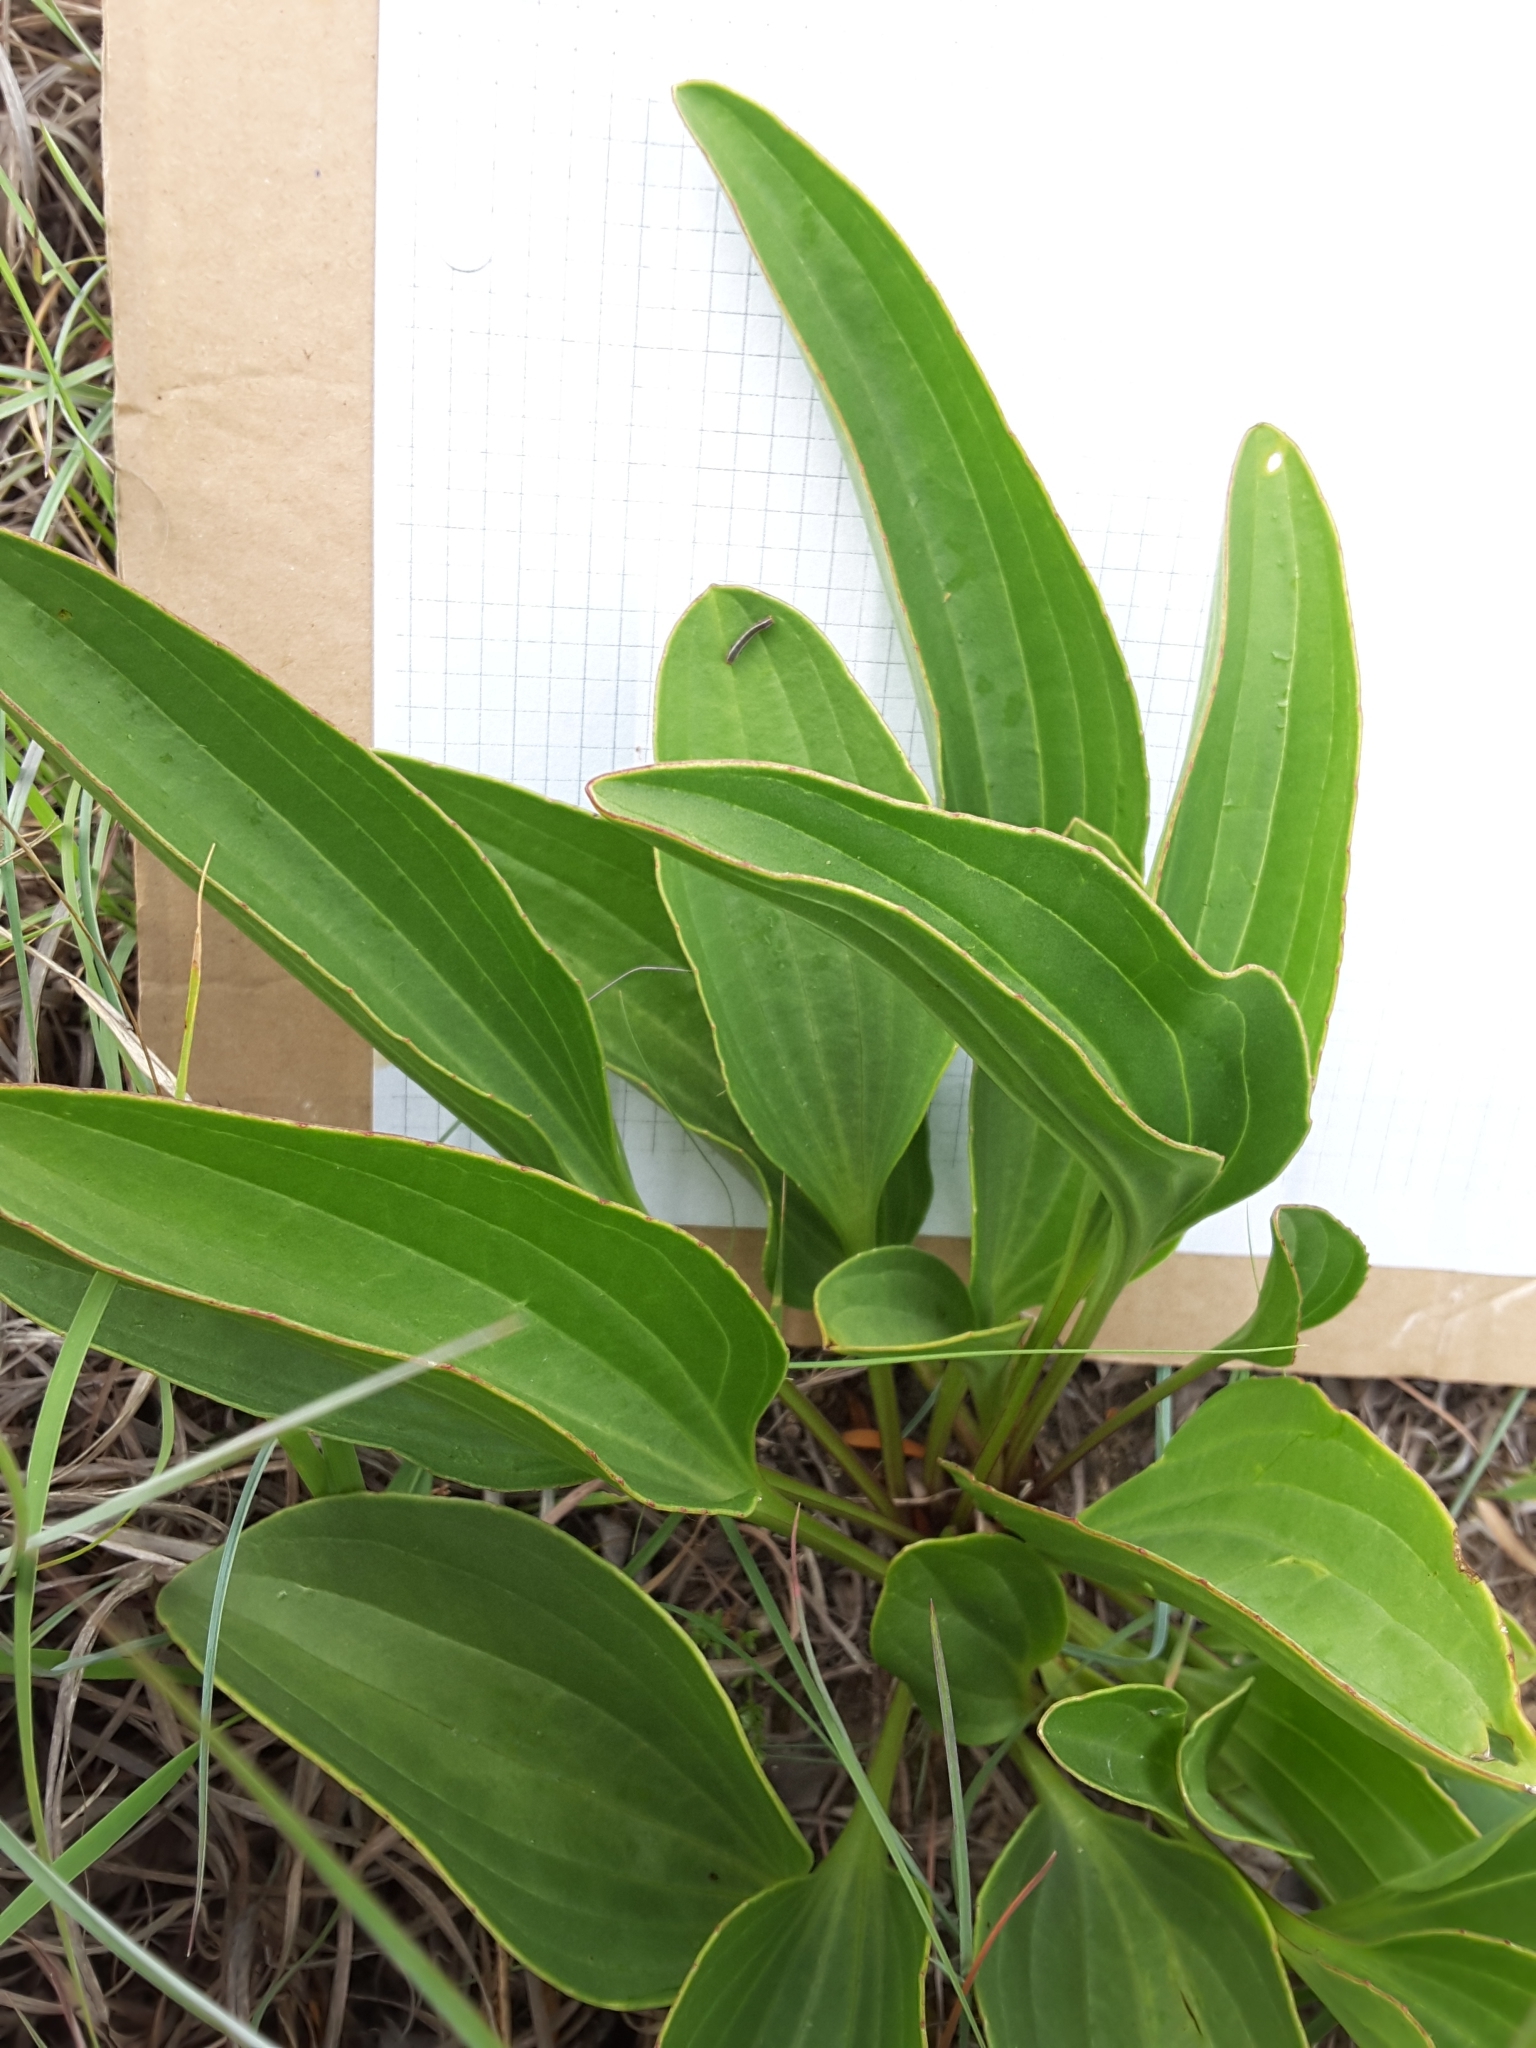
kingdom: Plantae
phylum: Tracheophyta
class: Magnoliopsida
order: Asterales
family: Asteraceae
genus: Arnoglossum
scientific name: Arnoglossum plantagineum
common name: Groove-stemmed indian-plantain
